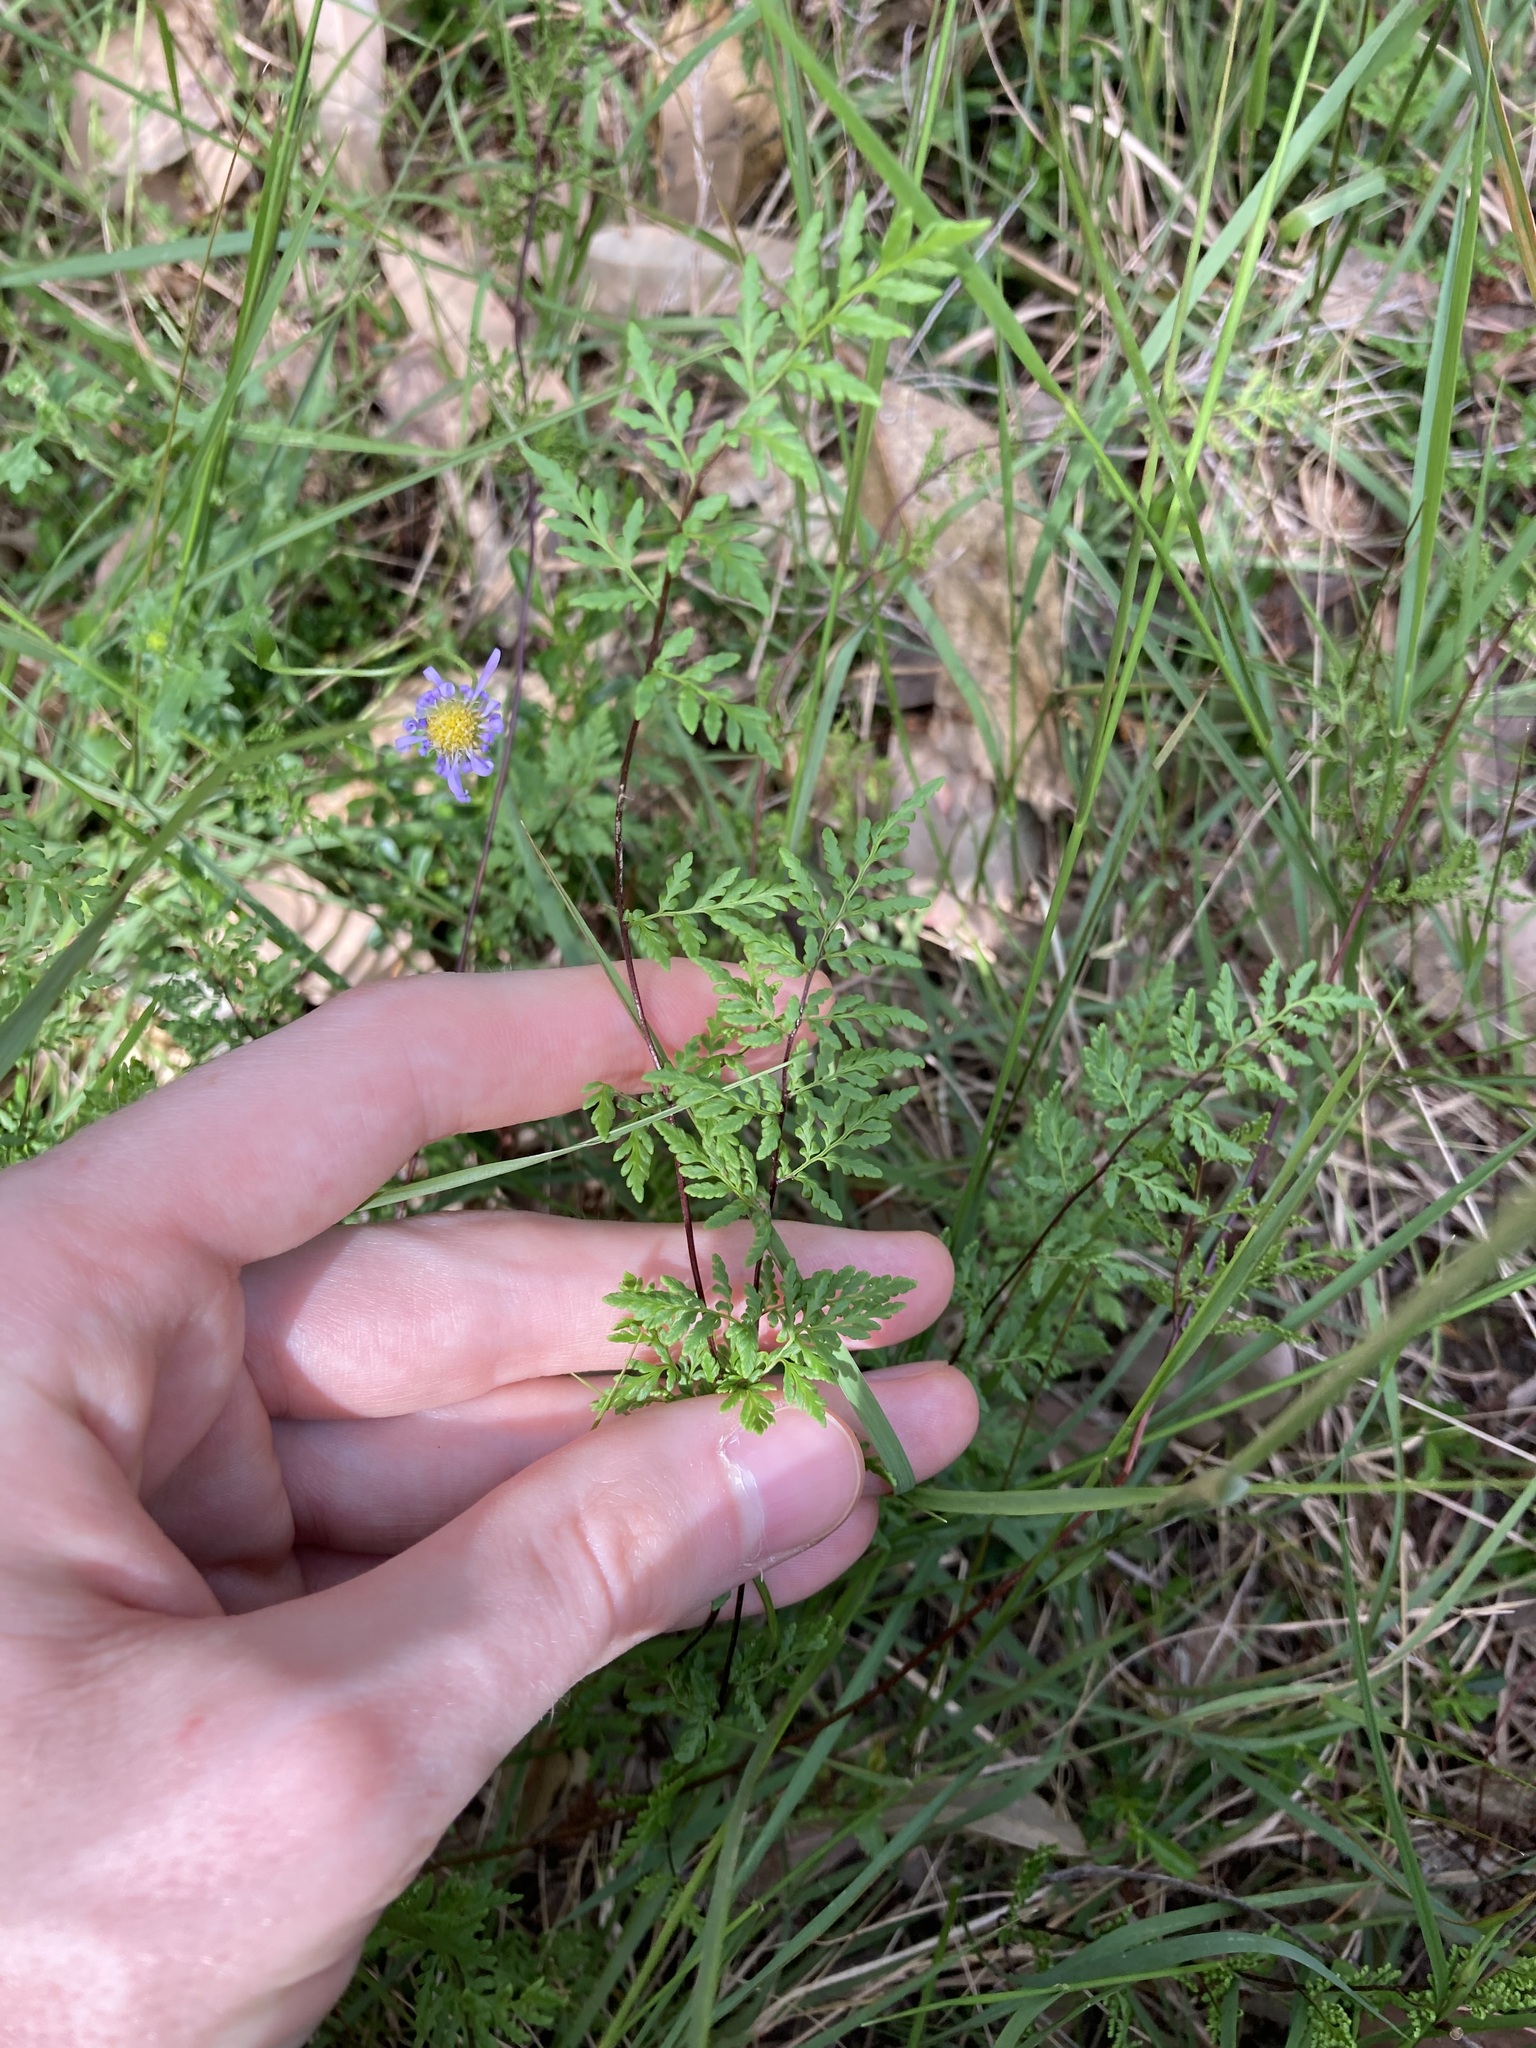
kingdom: Plantae
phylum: Tracheophyta
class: Polypodiopsida
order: Polypodiales
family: Pteridaceae
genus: Cheilanthes
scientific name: Cheilanthes sieberi
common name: Mulga fern
